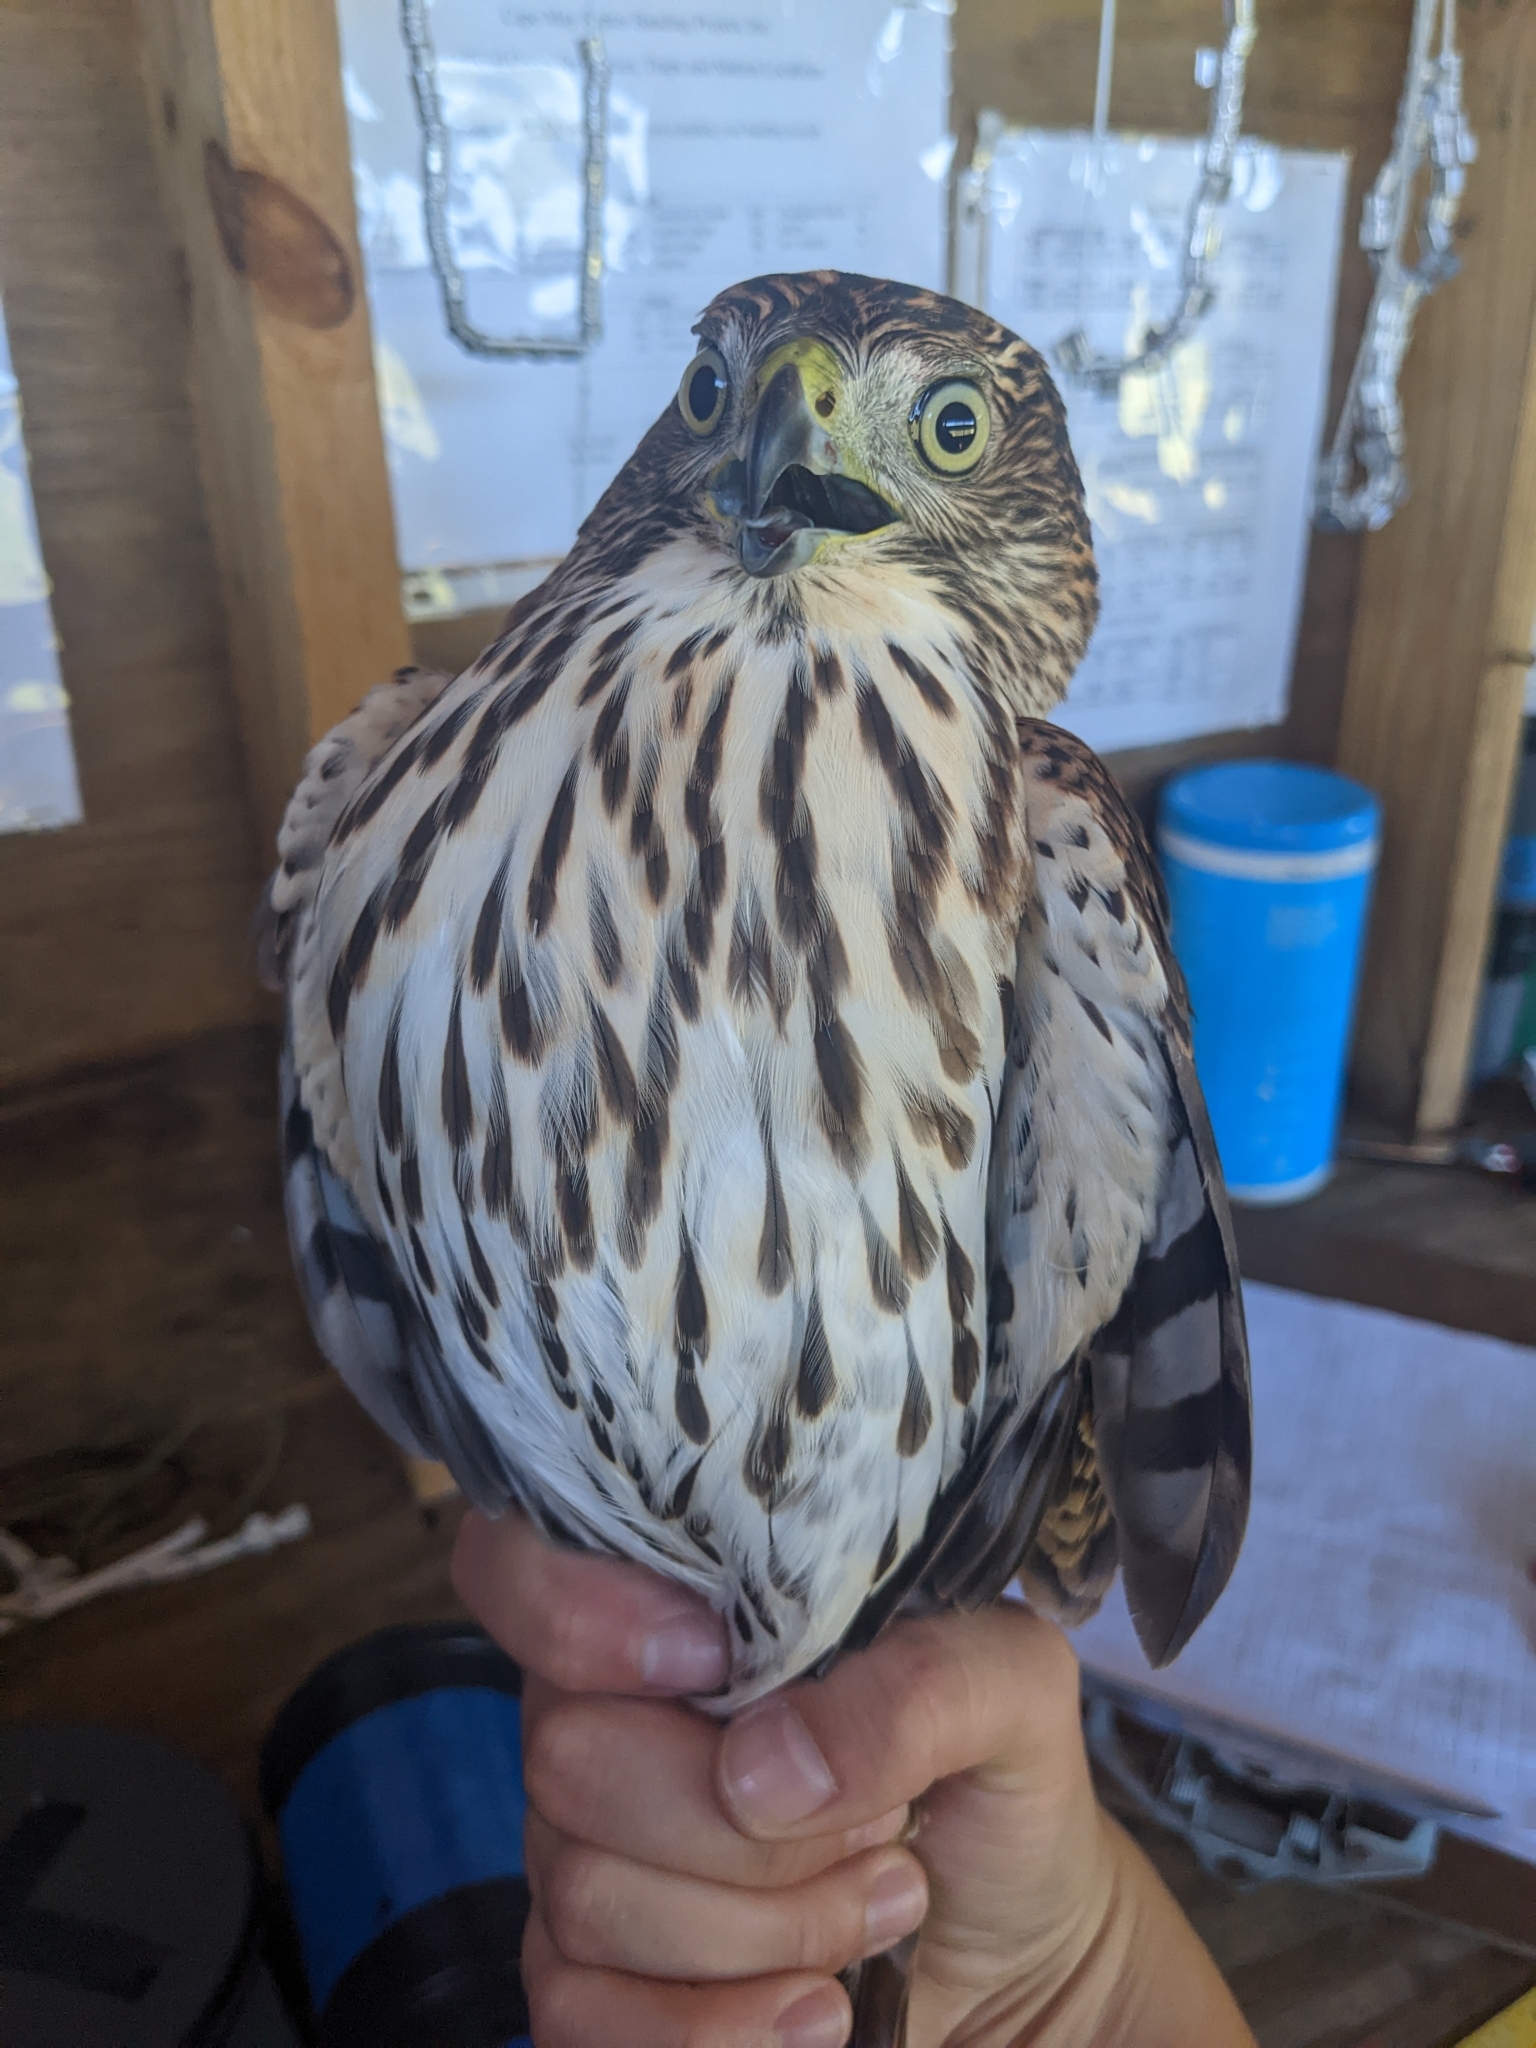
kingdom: Animalia
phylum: Chordata
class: Aves
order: Accipitriformes
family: Accipitridae
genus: Accipiter
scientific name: Accipiter cooperii
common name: Cooper's hawk
